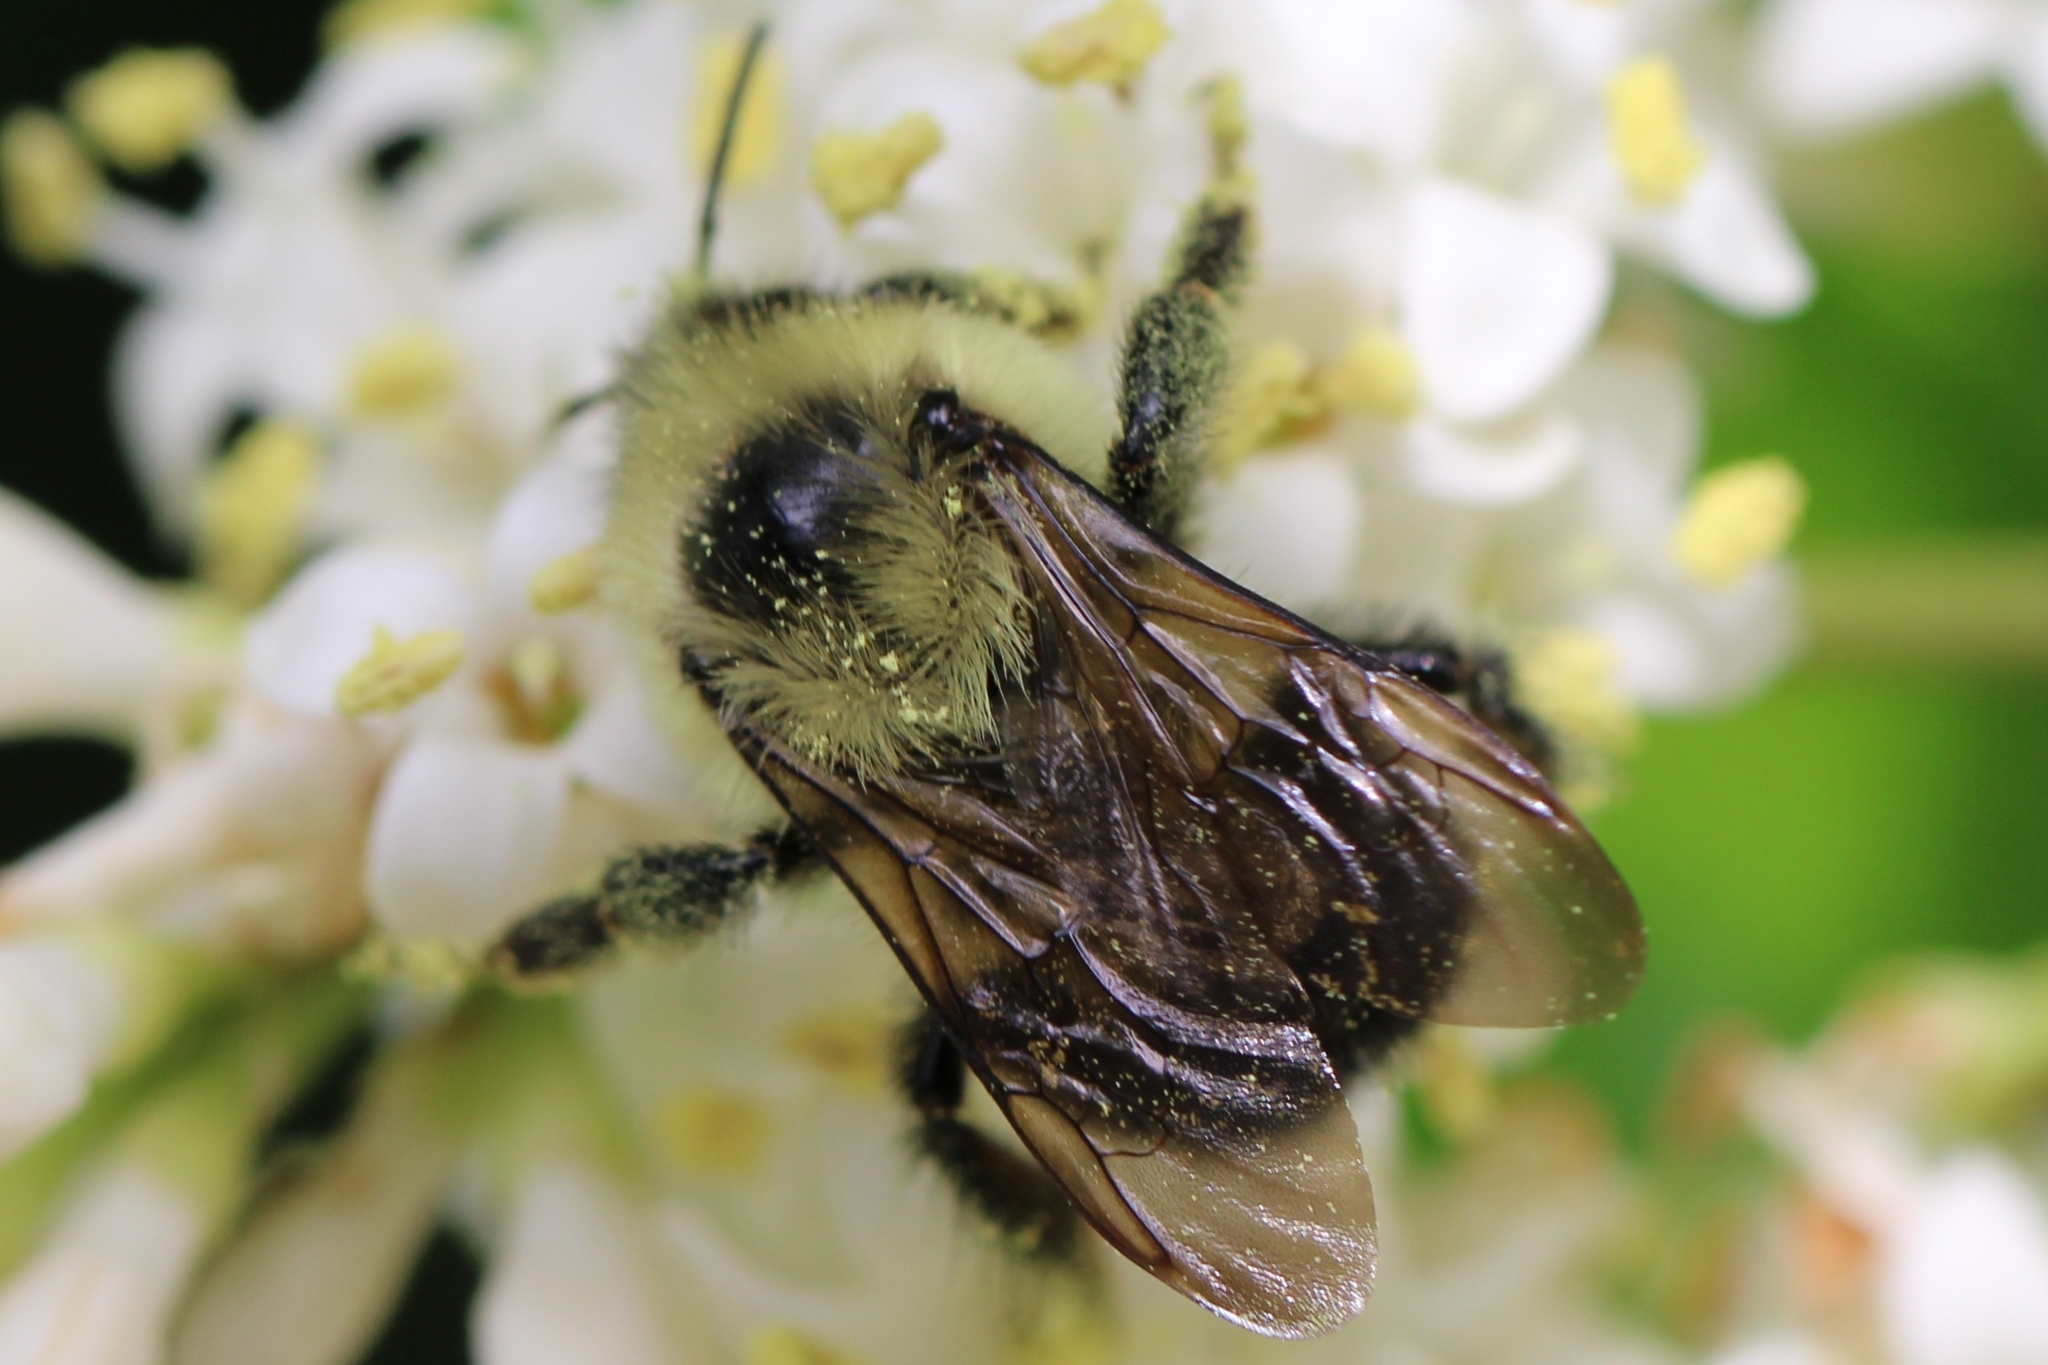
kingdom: Animalia
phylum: Arthropoda
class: Insecta
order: Hymenoptera
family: Apidae
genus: Bombus
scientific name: Bombus bimaculatus
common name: Two-spotted bumble bee
